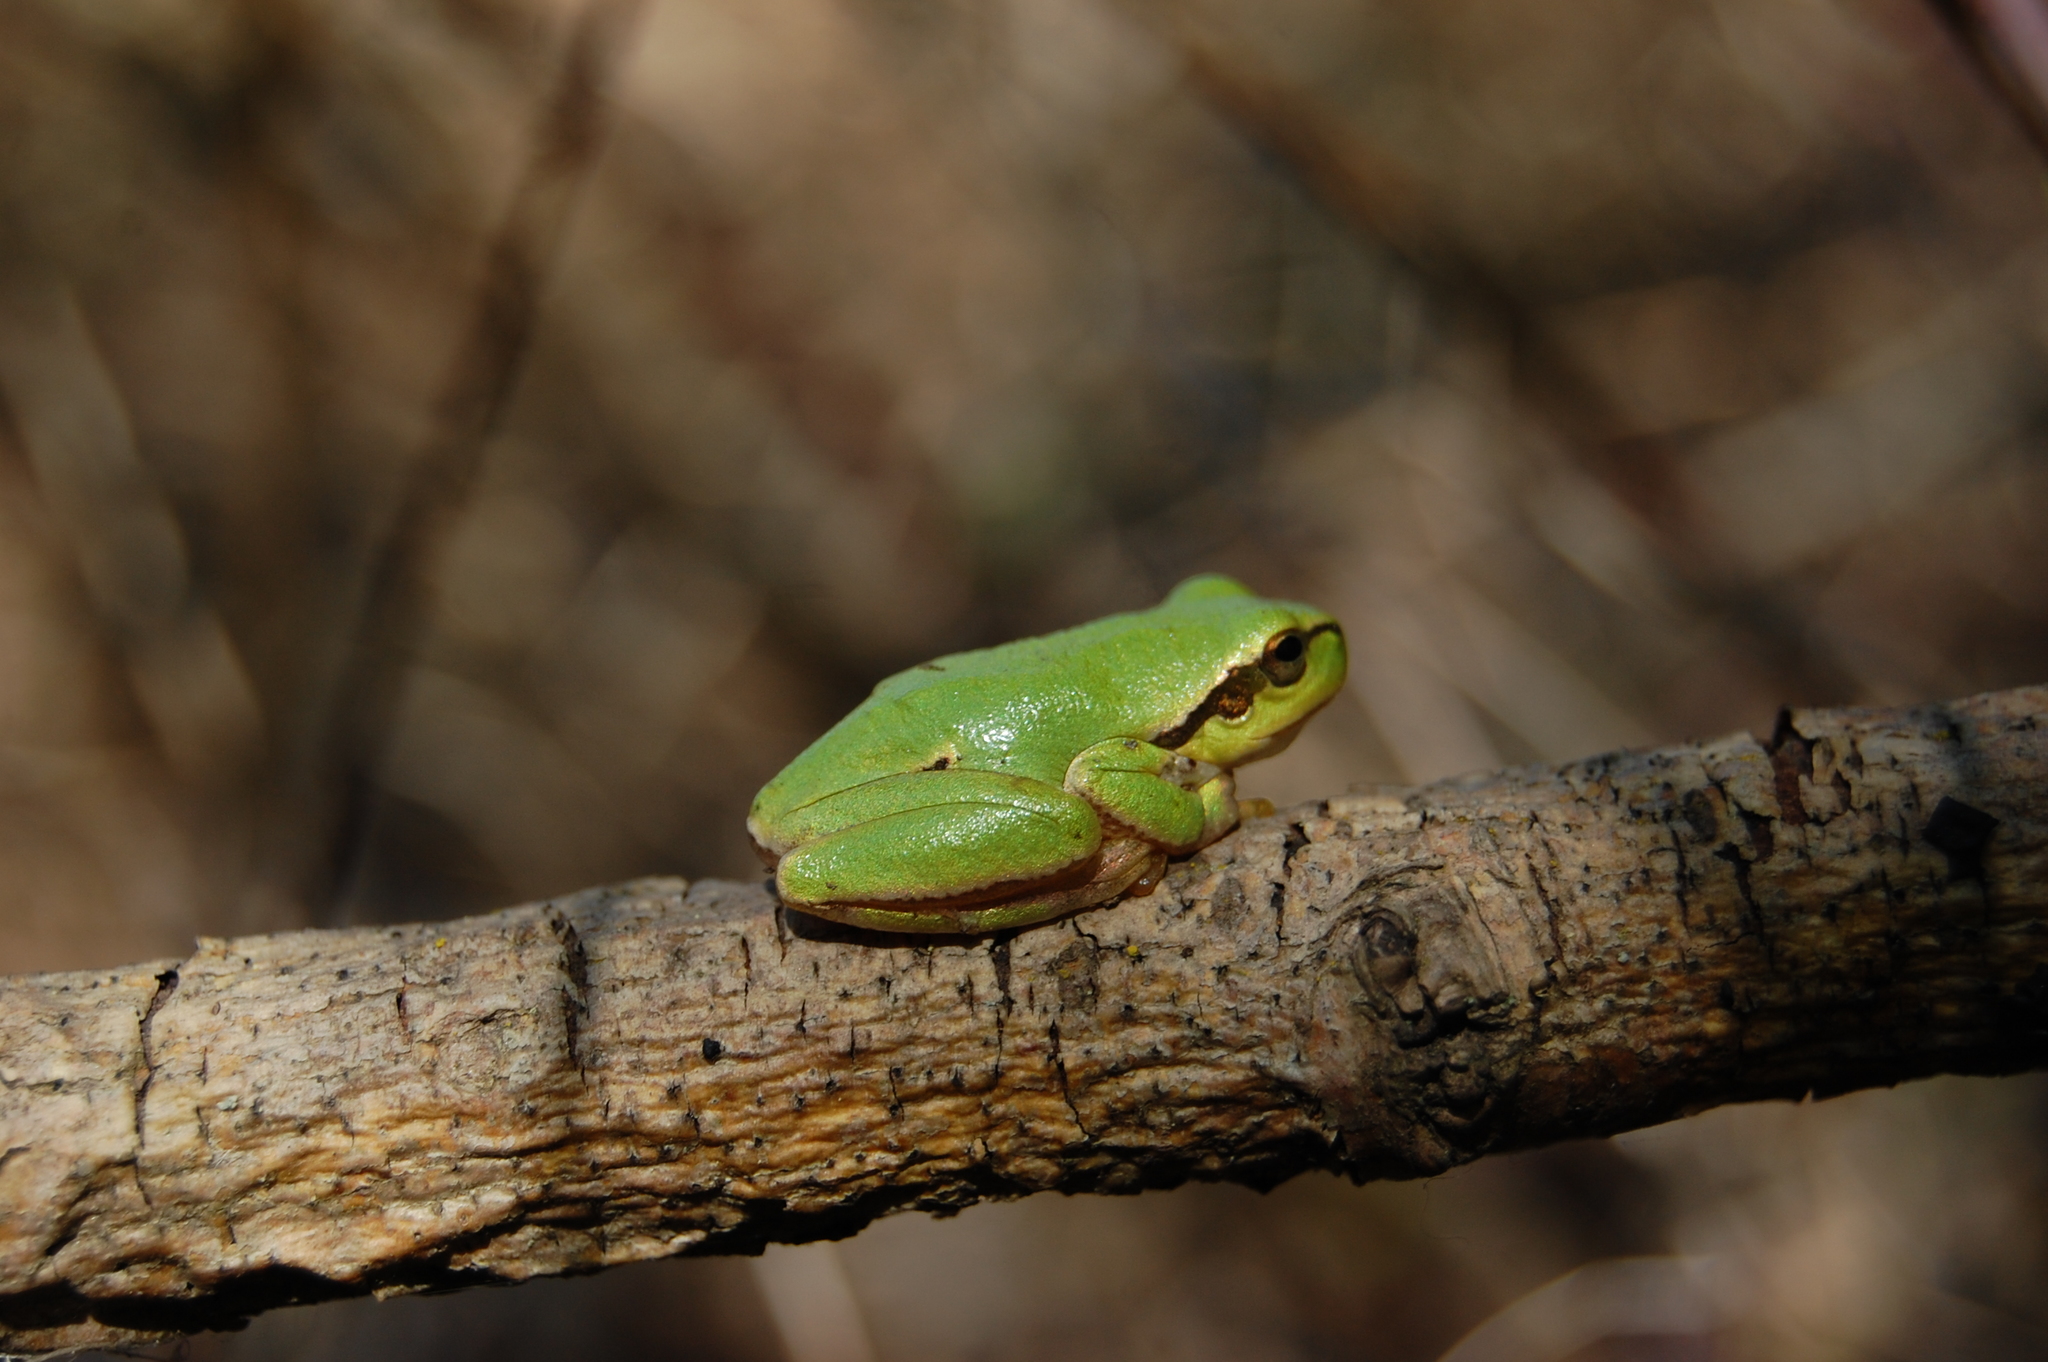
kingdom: Animalia
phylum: Chordata
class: Amphibia
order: Anura
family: Hylidae
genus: Hyla
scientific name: Hyla orientalis
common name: Caucasian treefrog
